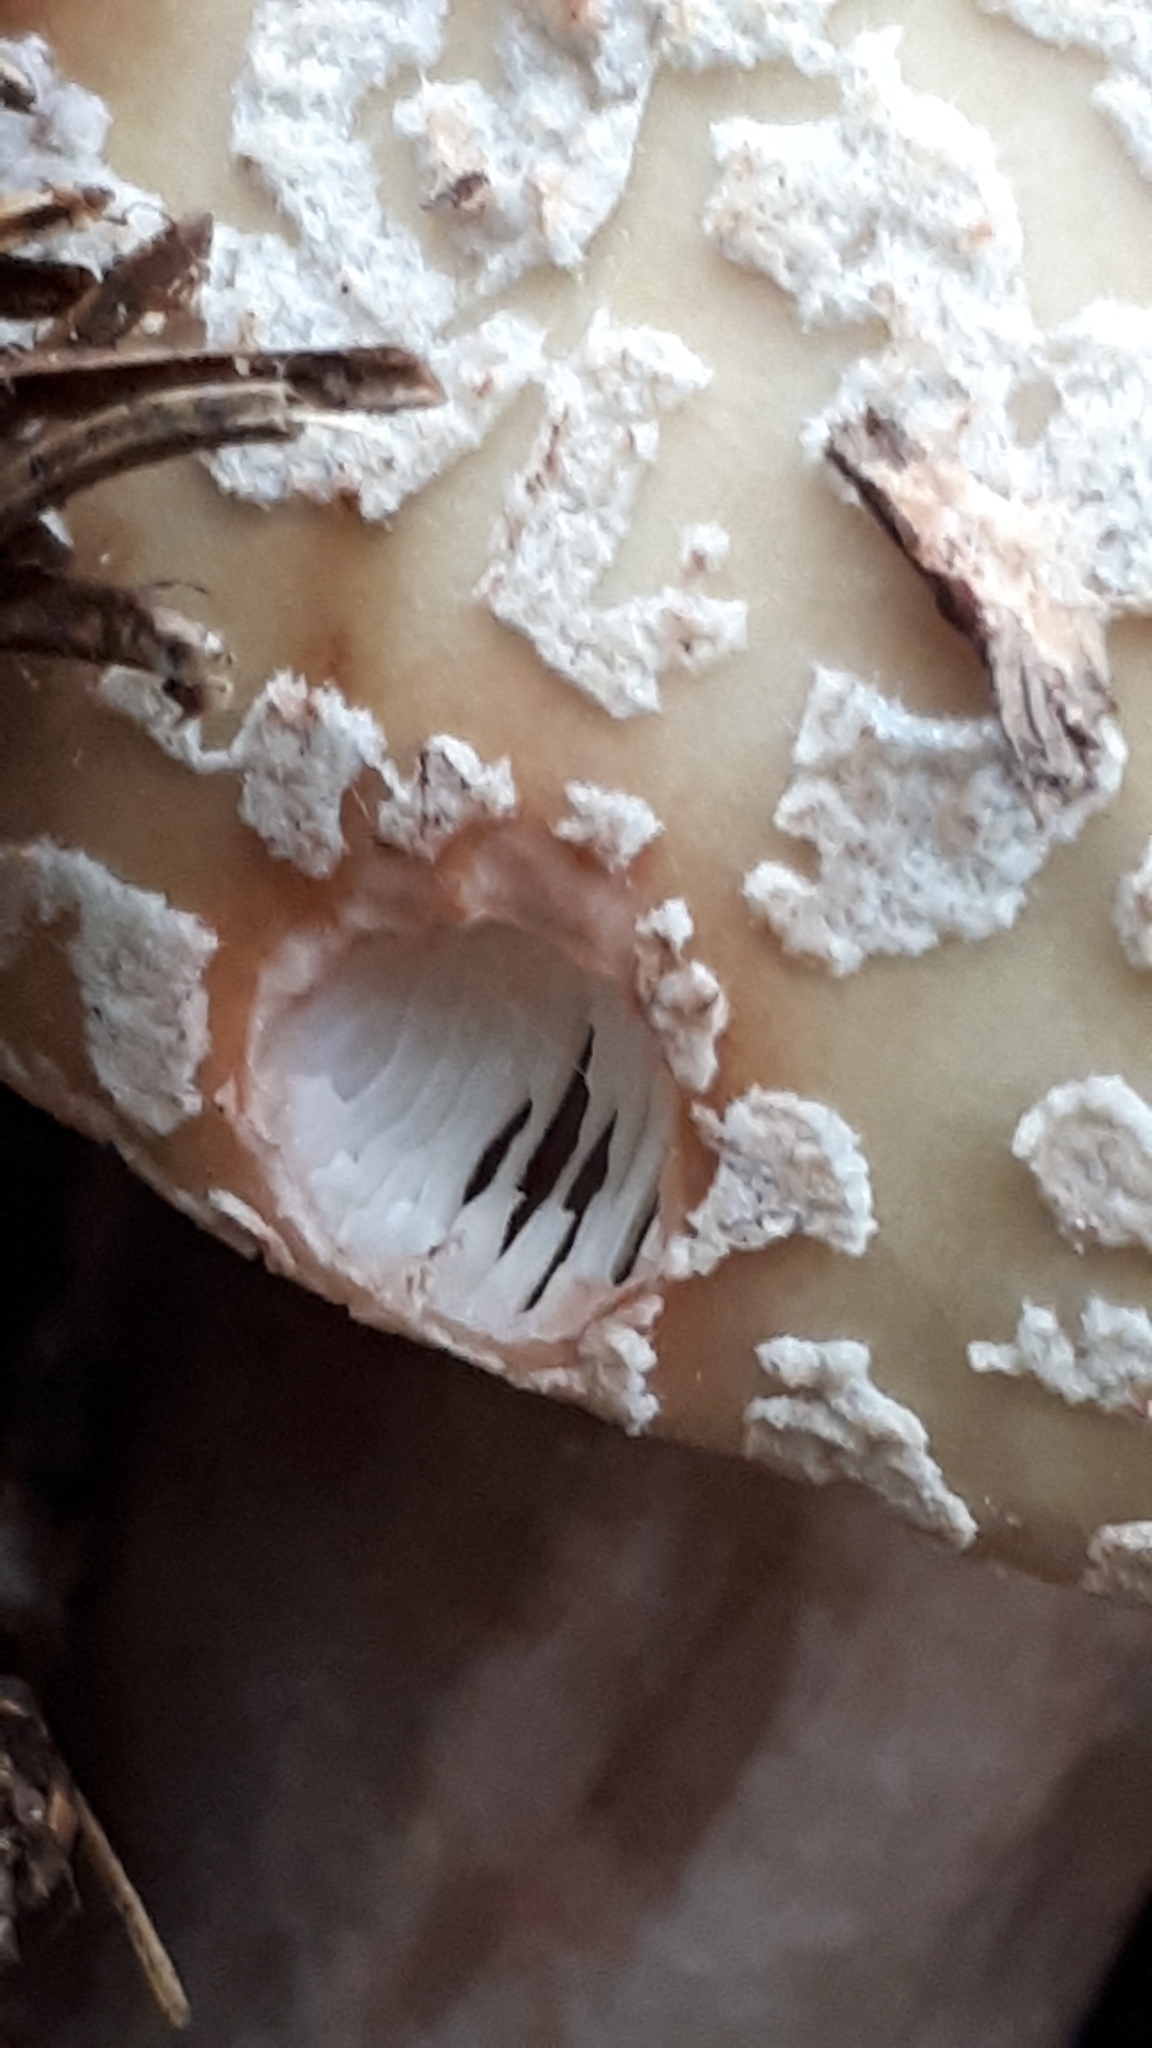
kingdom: Fungi
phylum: Basidiomycota
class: Agaricomycetes
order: Agaricales
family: Amanitaceae
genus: Amanita
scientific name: Amanita rubescens
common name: Blusher
